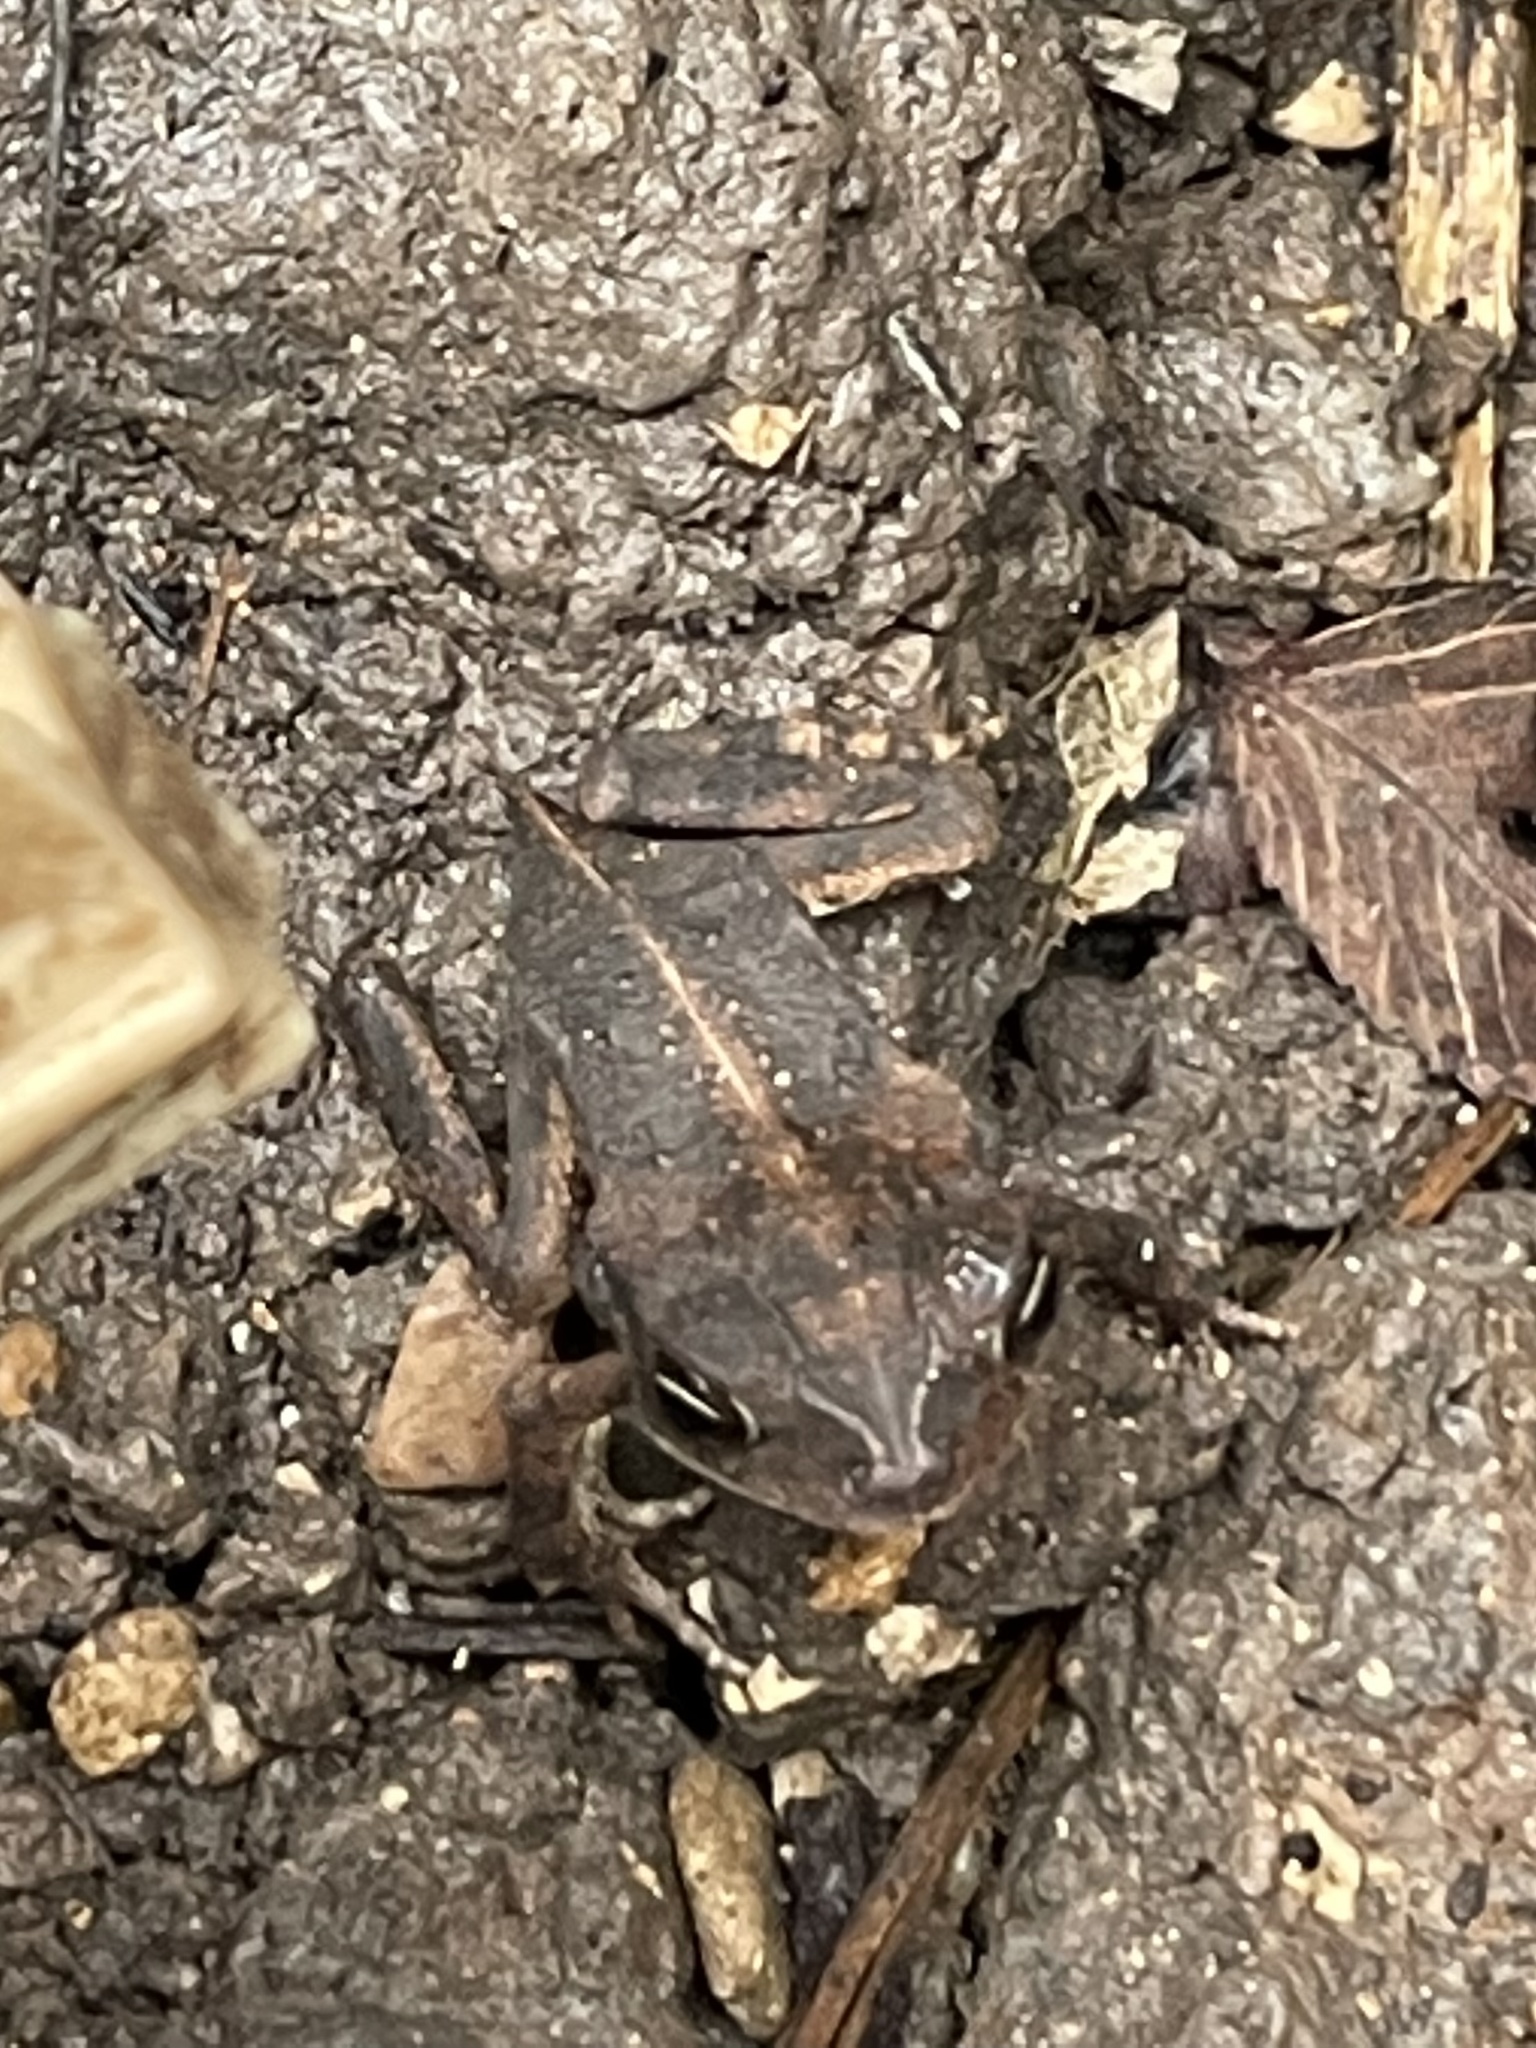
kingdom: Animalia
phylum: Chordata
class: Amphibia
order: Anura
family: Bufonidae
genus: Incilius
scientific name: Incilius nebulifer
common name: Gulf coast toad
